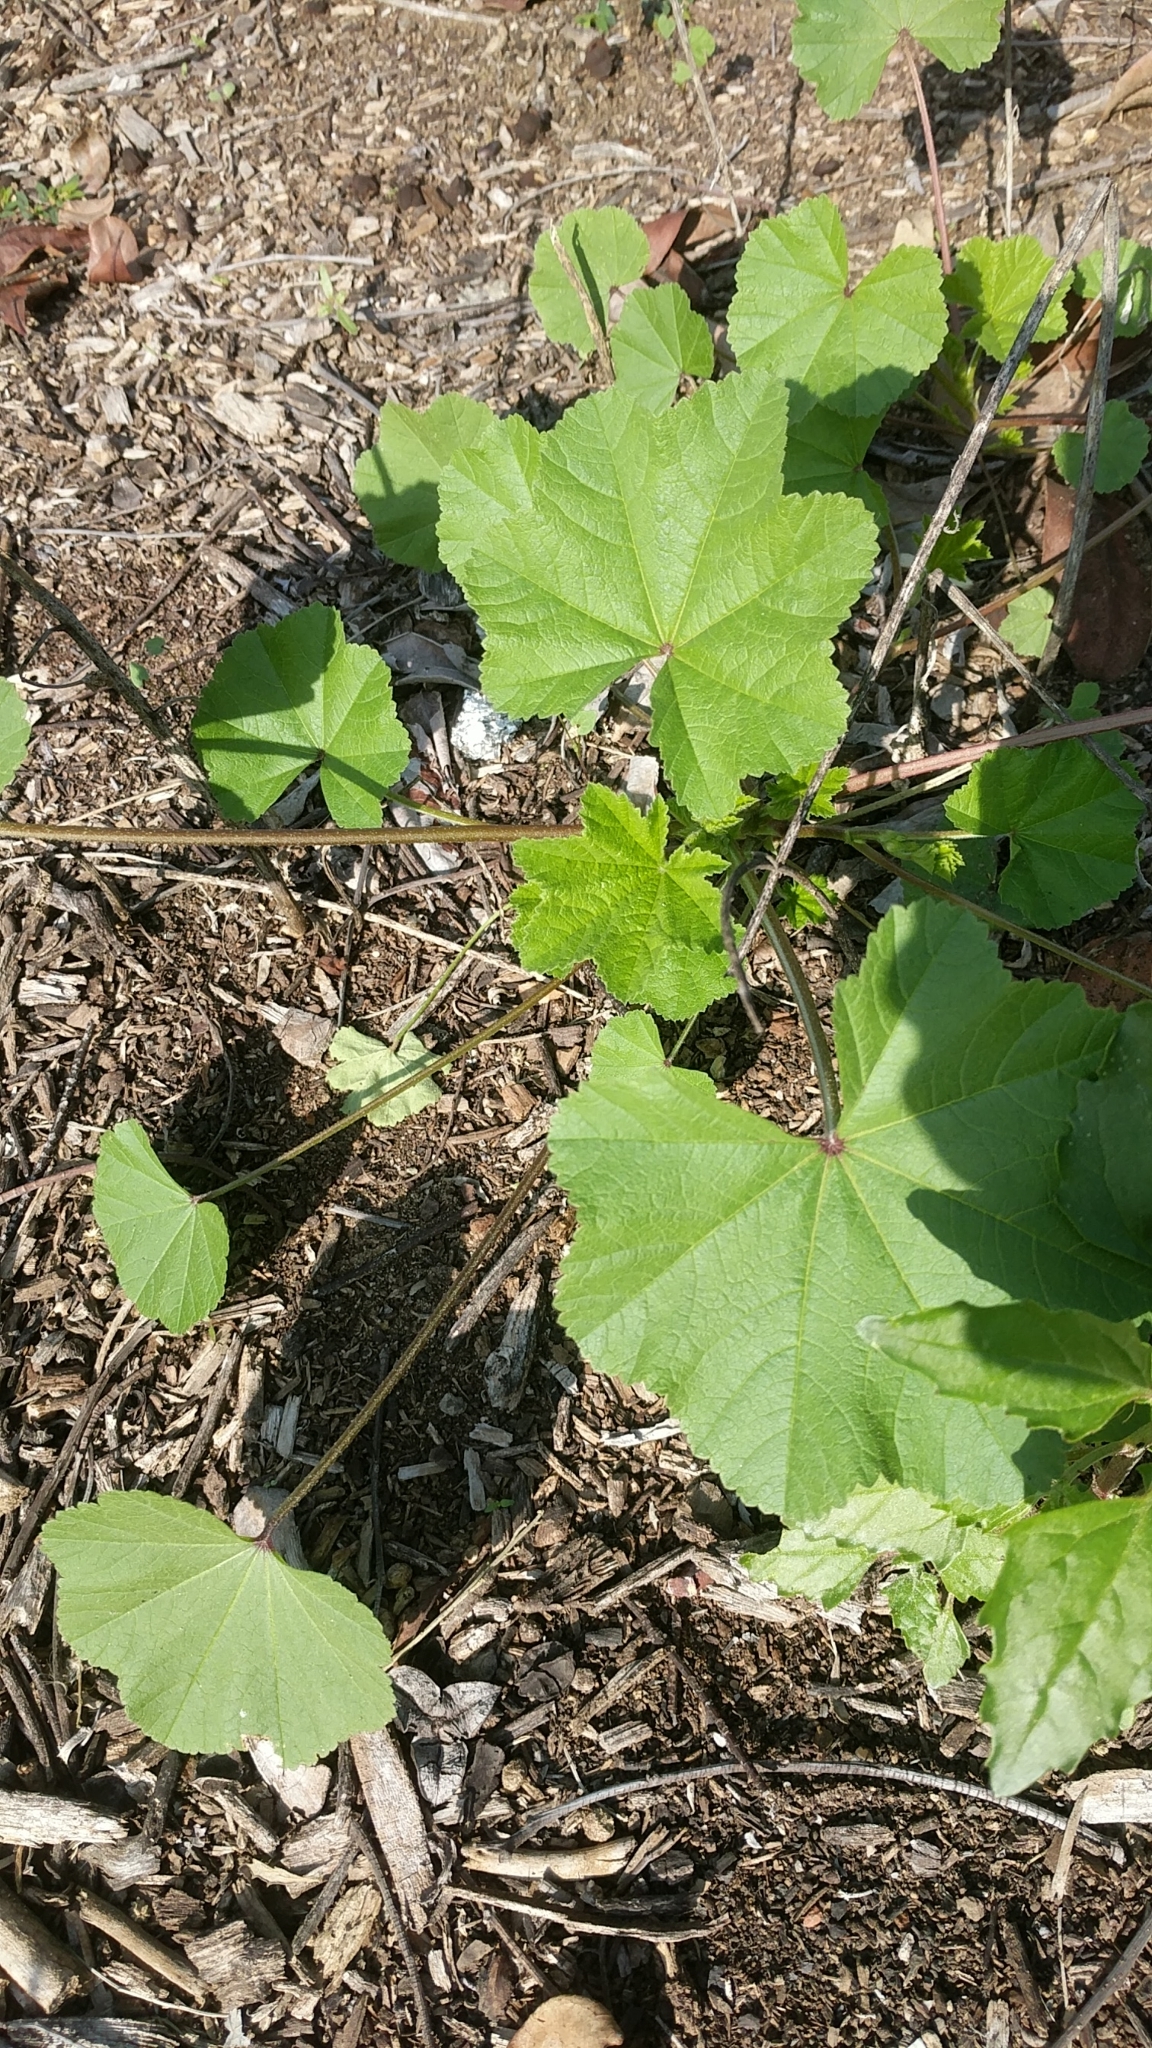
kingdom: Plantae
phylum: Tracheophyta
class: Magnoliopsida
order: Malvales
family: Malvaceae
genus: Malva
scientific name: Malva
